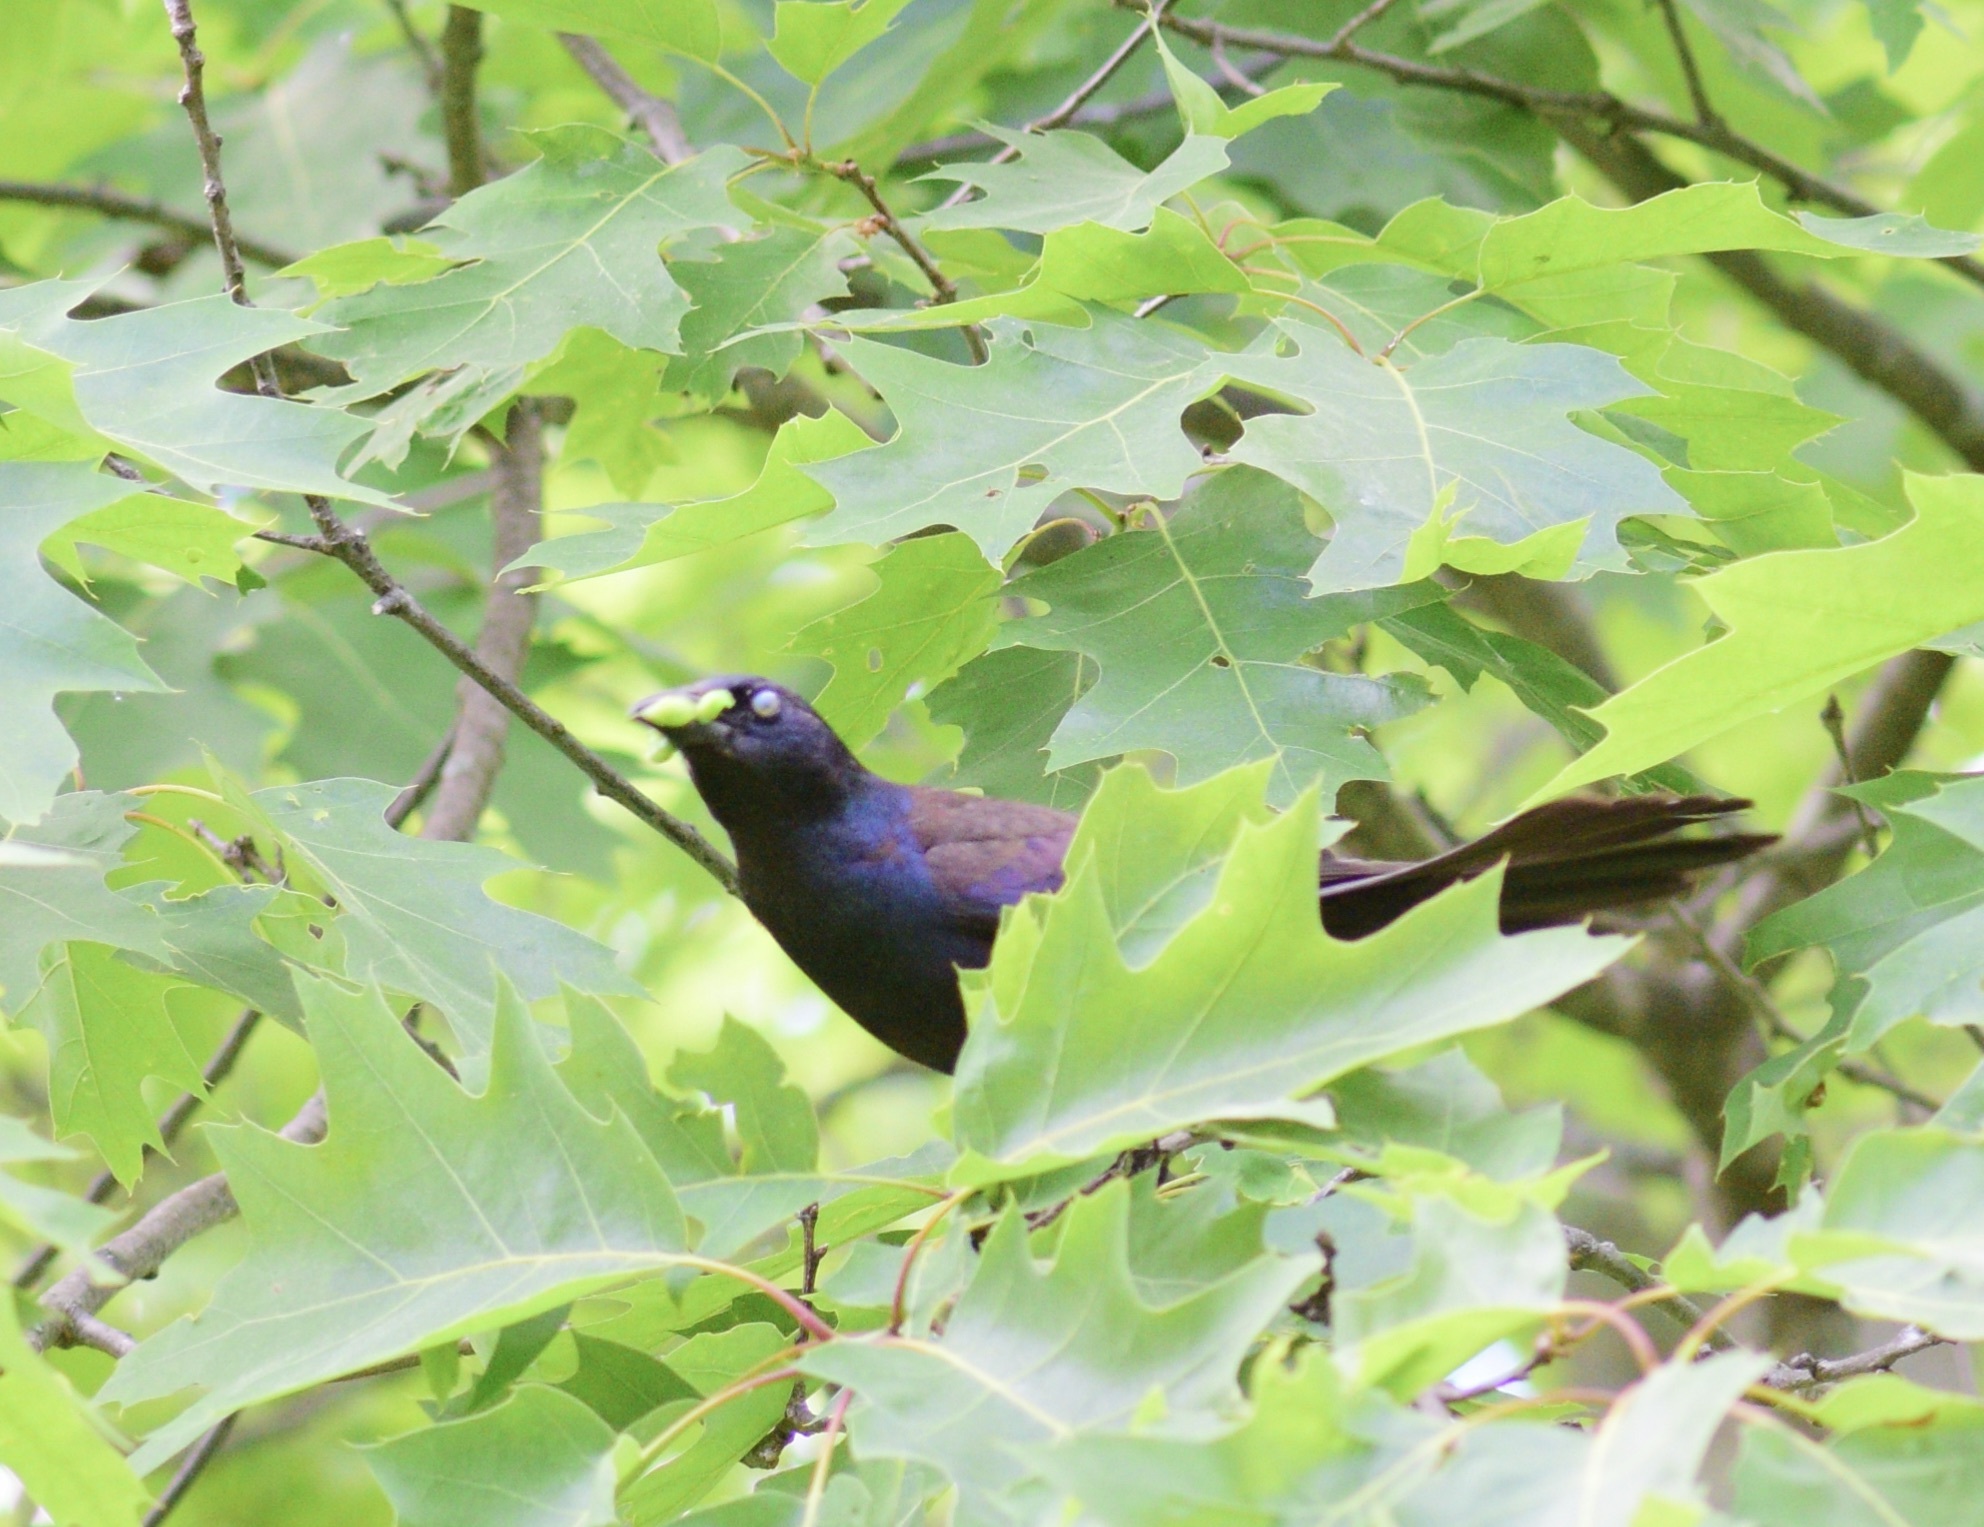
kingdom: Animalia
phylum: Chordata
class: Aves
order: Passeriformes
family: Icteridae
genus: Quiscalus
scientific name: Quiscalus quiscula
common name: Common grackle
